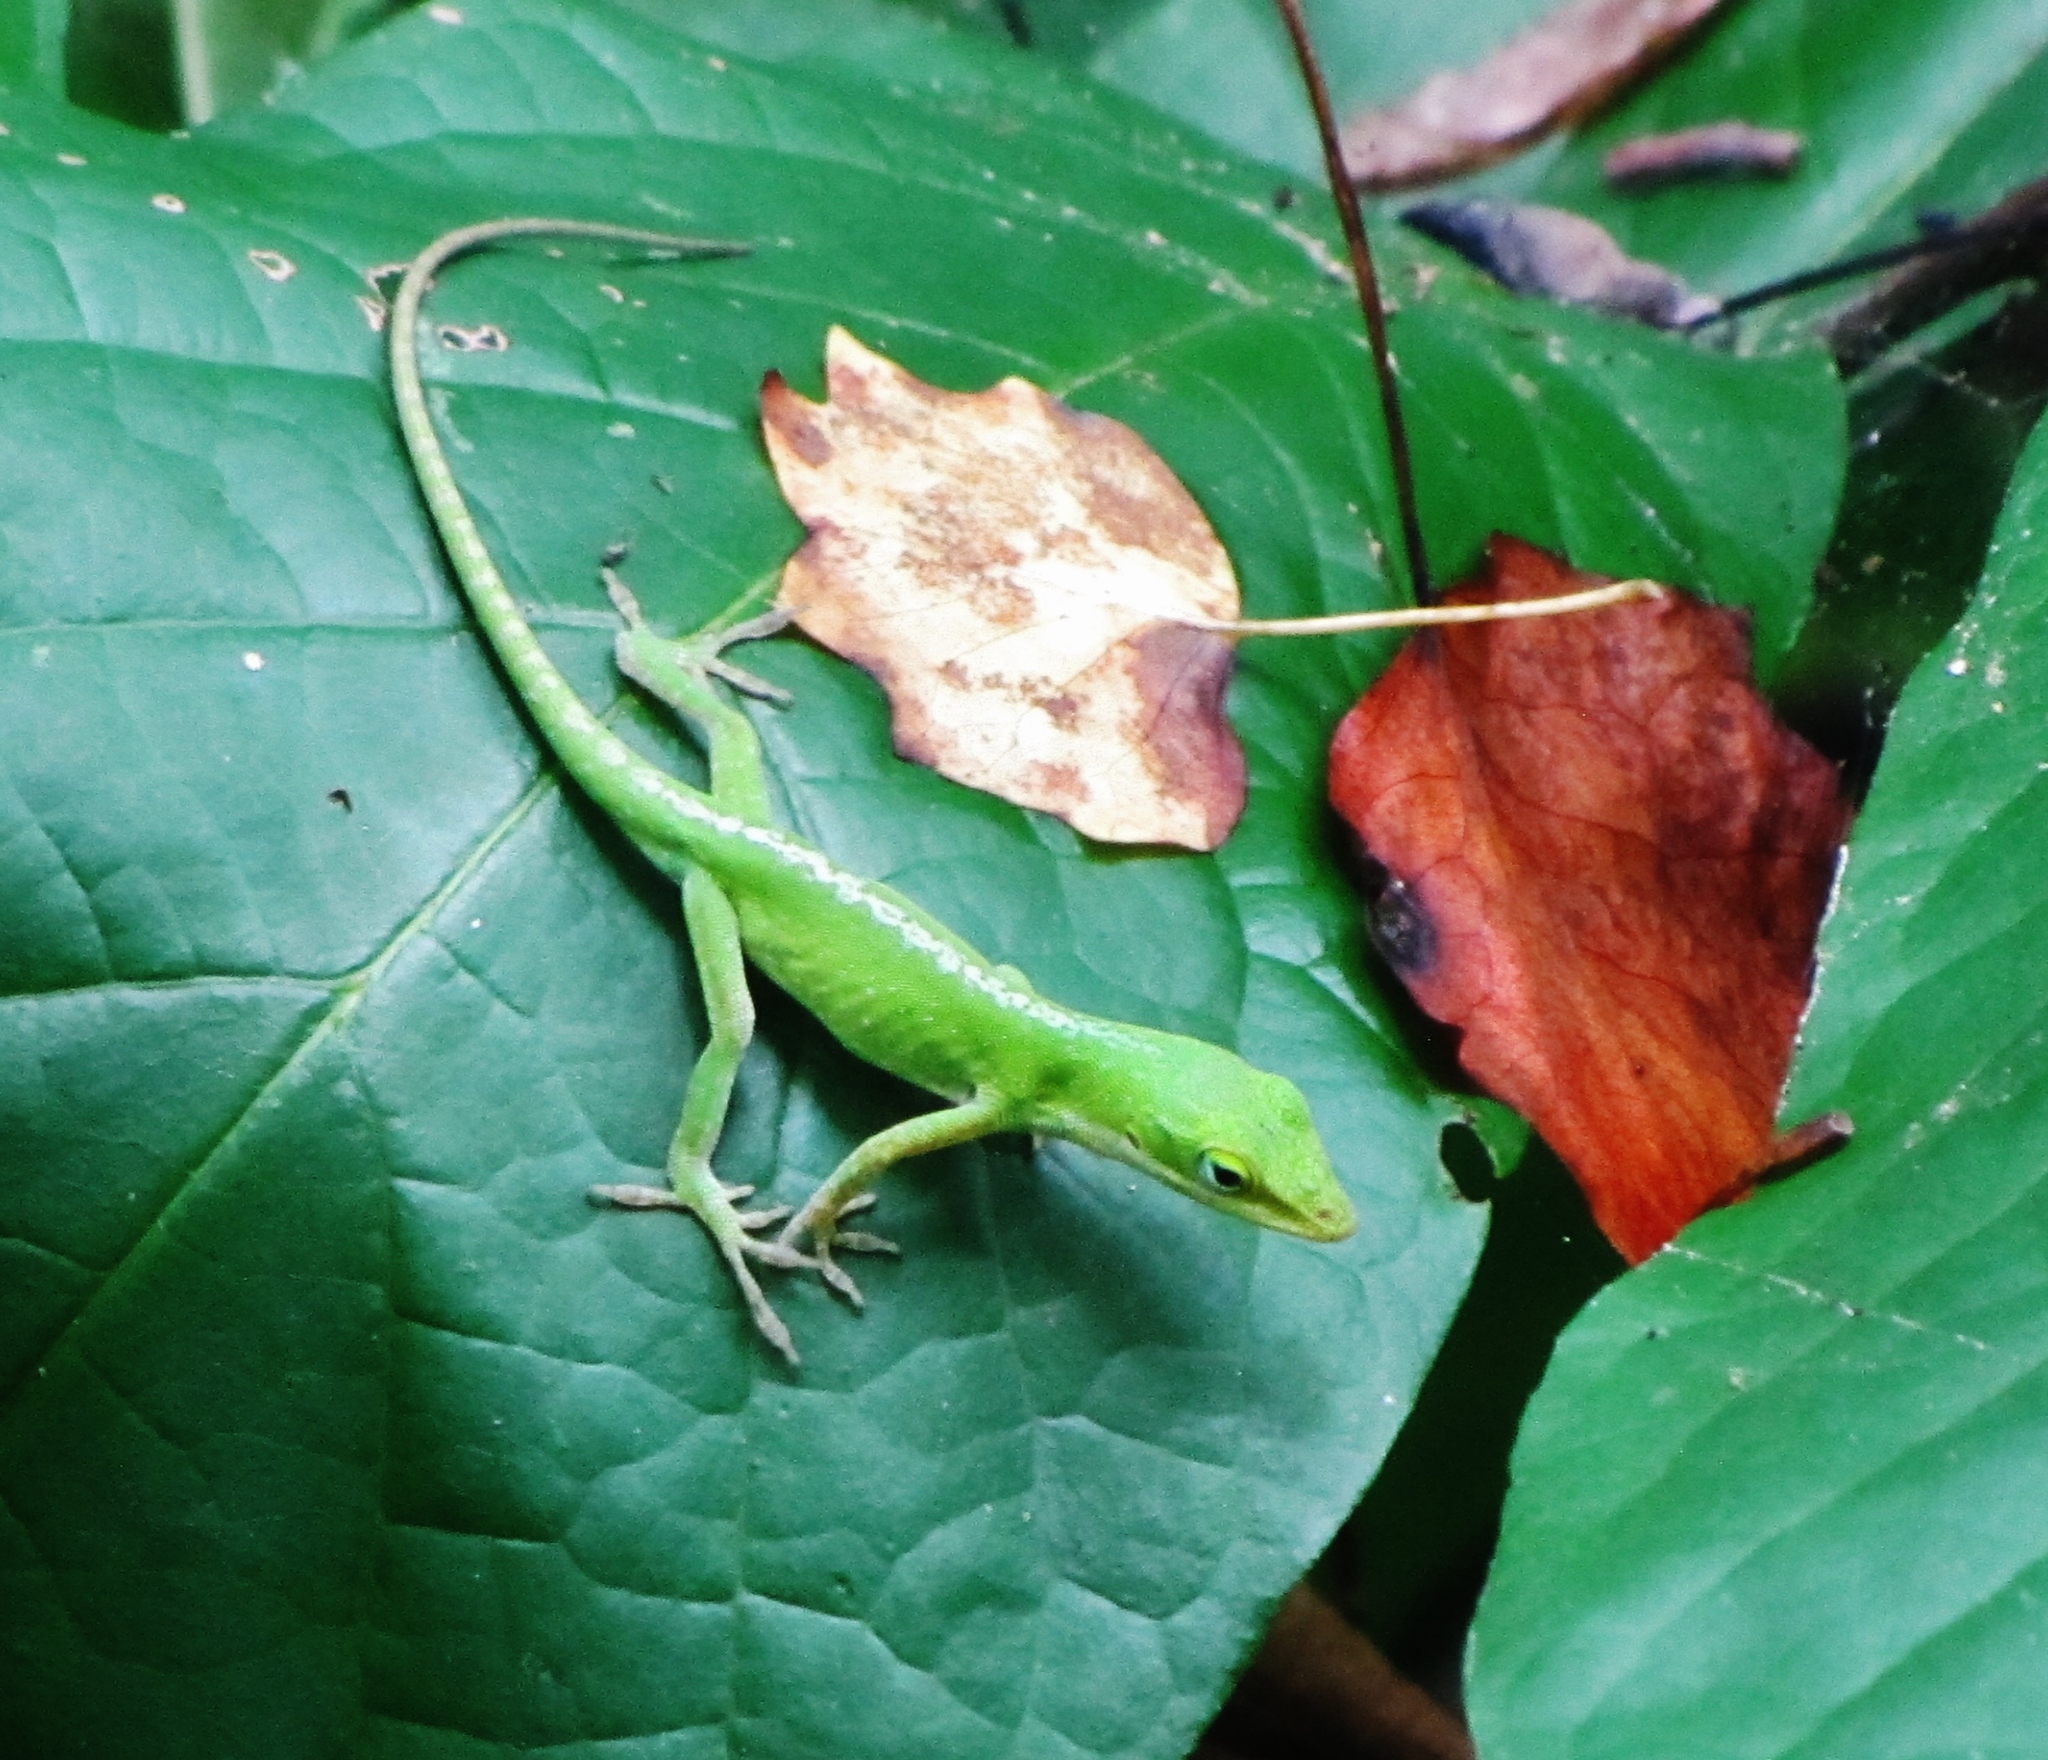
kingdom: Animalia
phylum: Chordata
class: Squamata
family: Dactyloidae
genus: Anolis
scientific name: Anolis carolinensis
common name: Green anole
